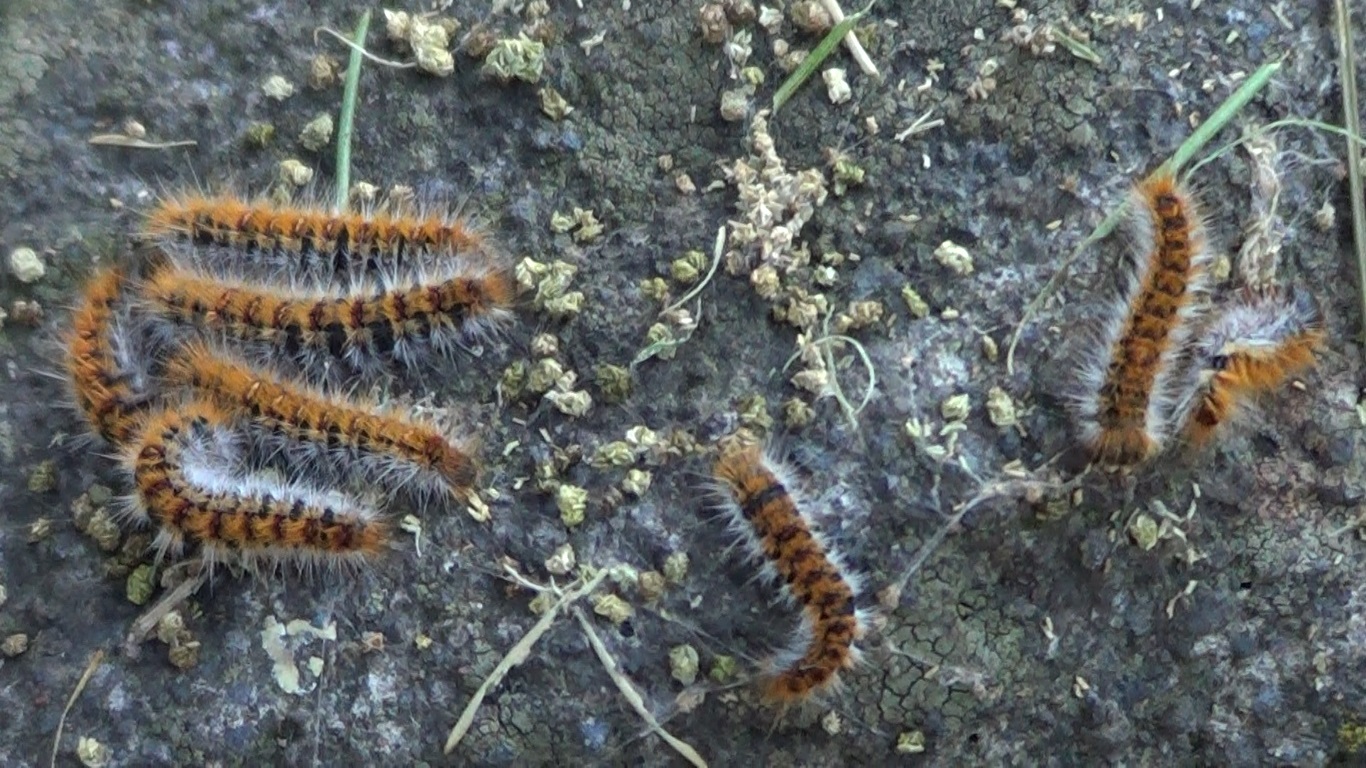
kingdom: Animalia
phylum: Arthropoda
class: Insecta
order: Lepidoptera
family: Notodontidae
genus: Thaumetopoea
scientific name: Thaumetopoea pityocampa
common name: Pine processionary
